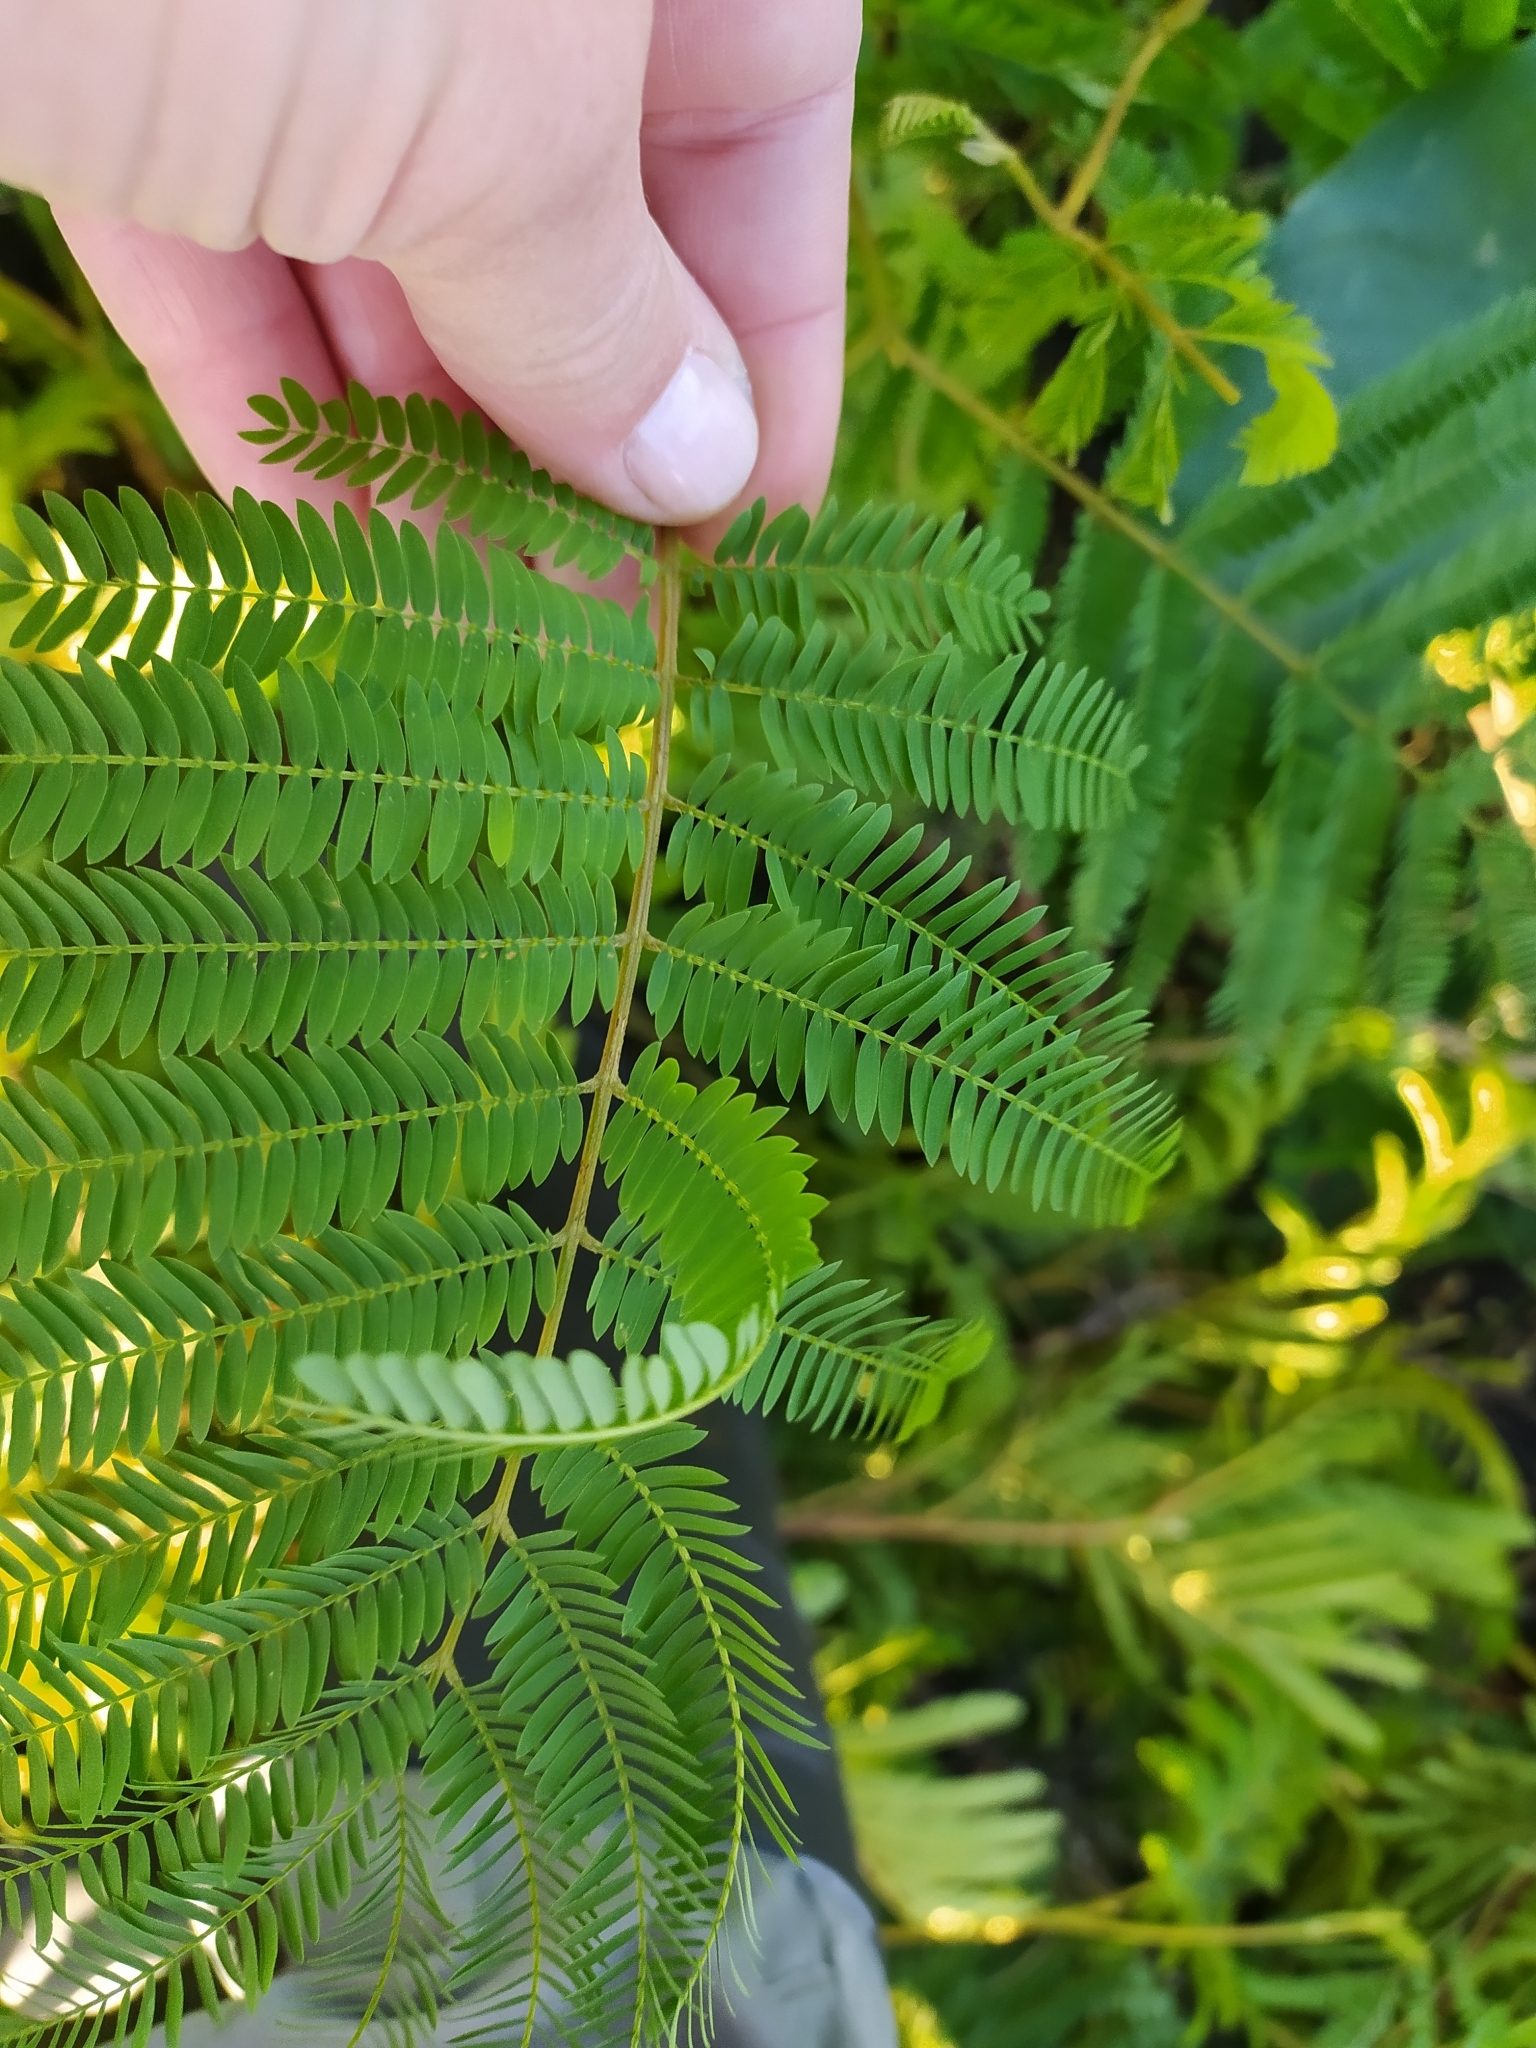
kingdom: Plantae
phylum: Tracheophyta
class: Magnoliopsida
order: Fabales
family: Fabaceae
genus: Paraserianthes
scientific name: Paraserianthes lophantha
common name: Plume albizia
